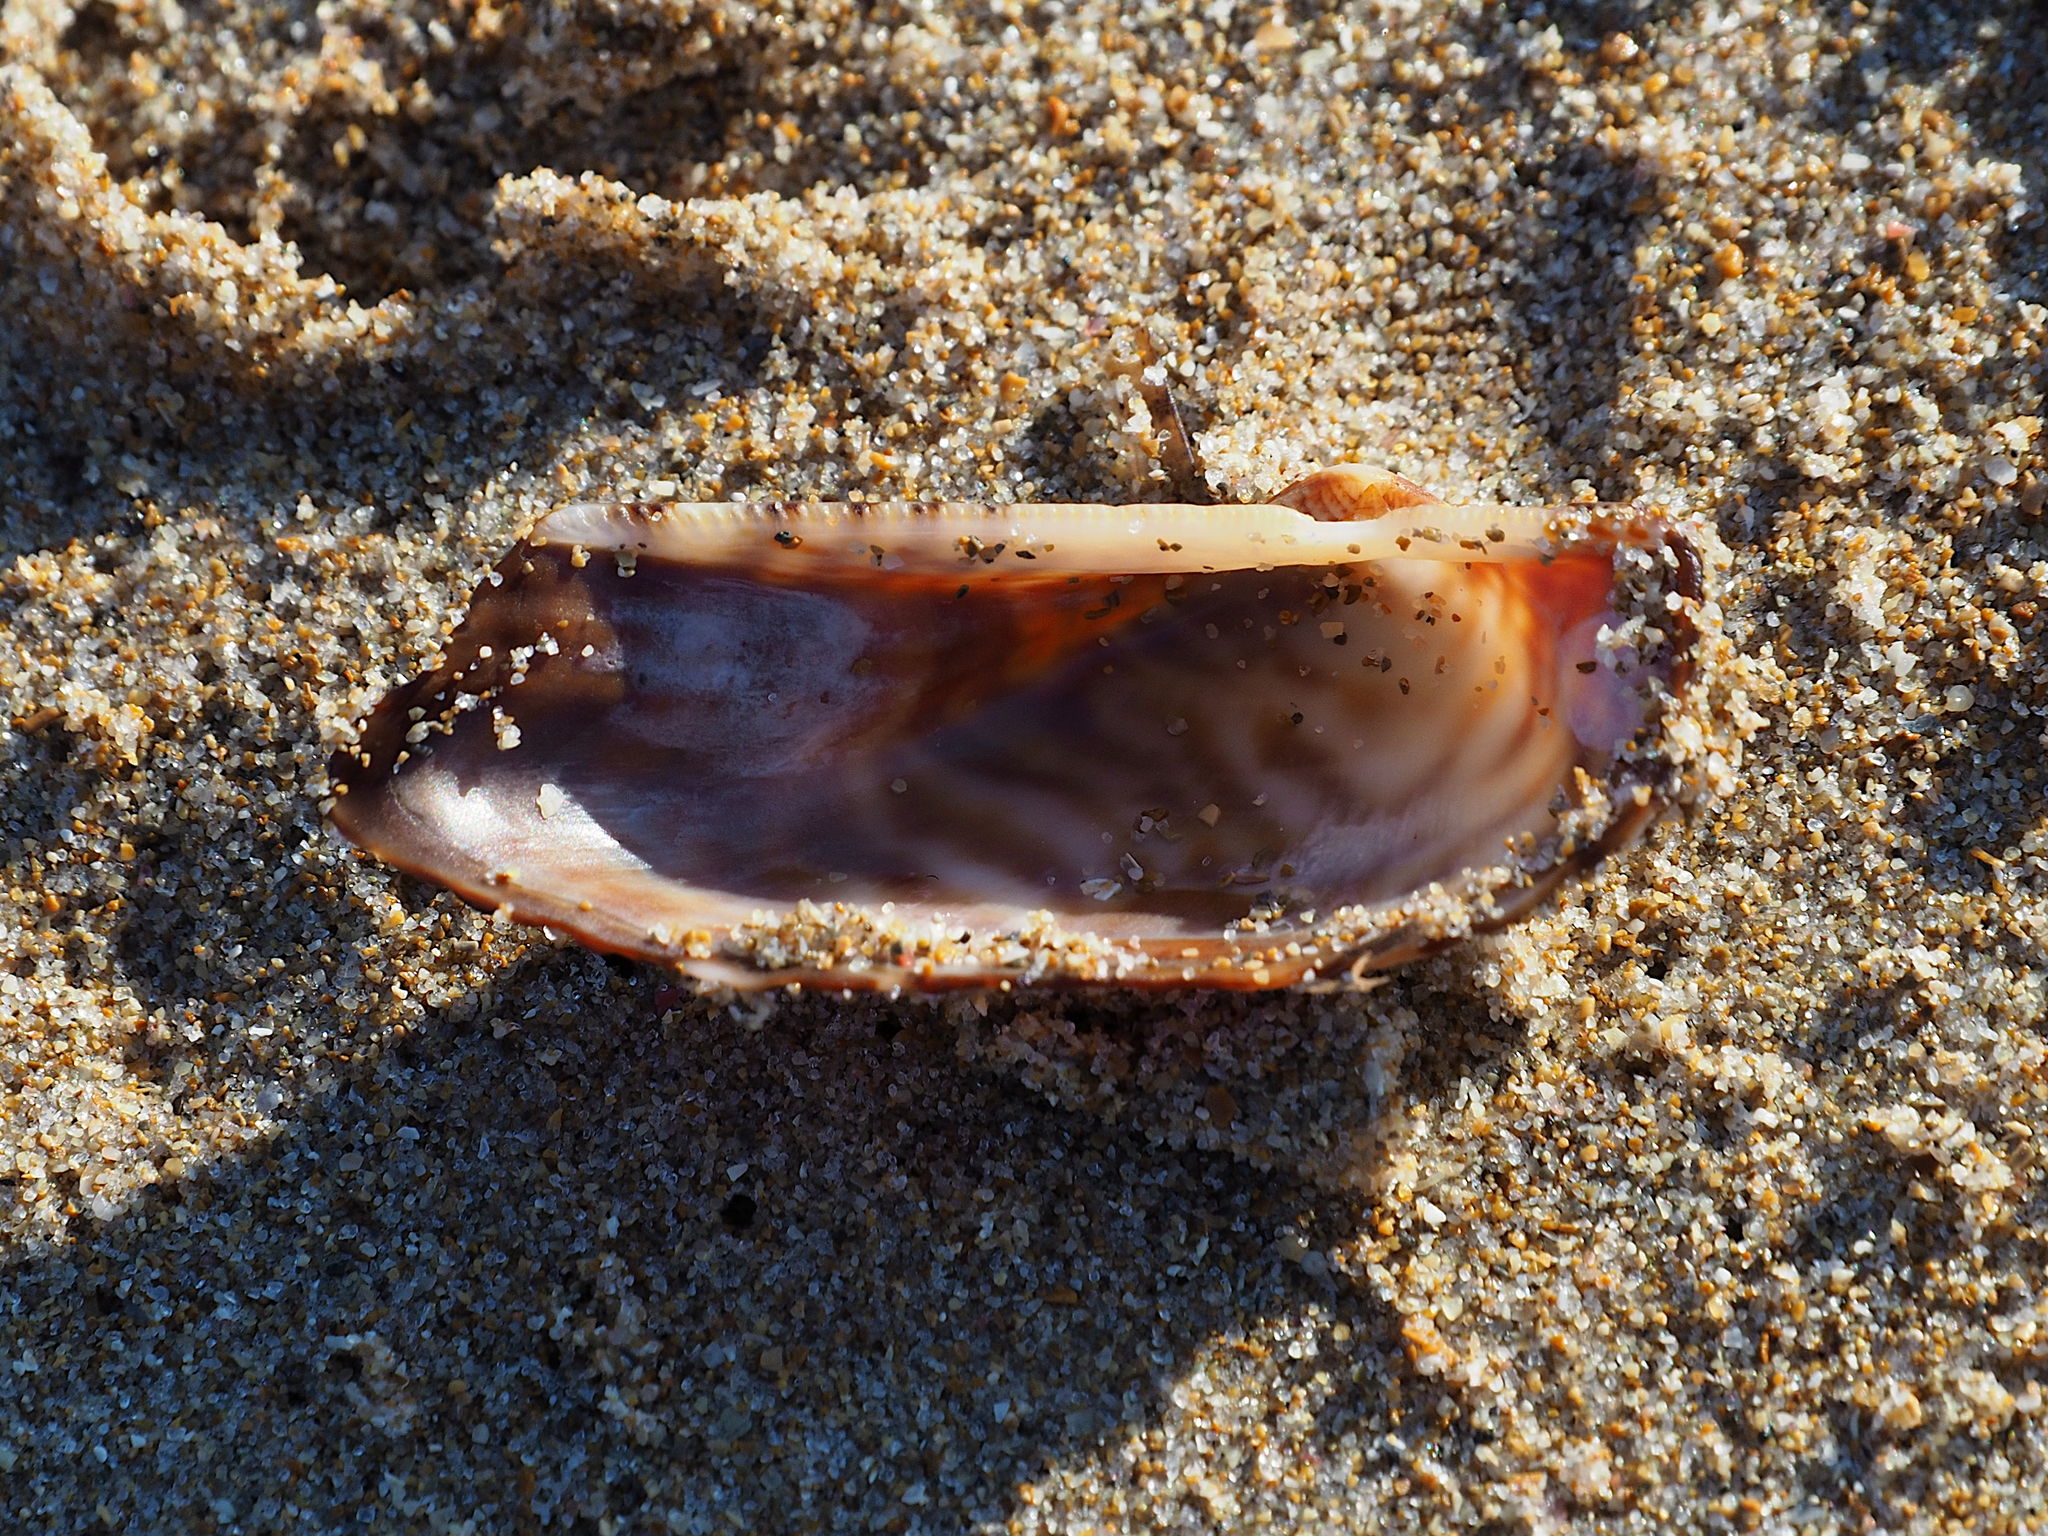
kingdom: Animalia
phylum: Mollusca
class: Bivalvia
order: Arcida
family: Arcidae
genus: Arca
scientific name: Arca noae
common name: Noah's arch
